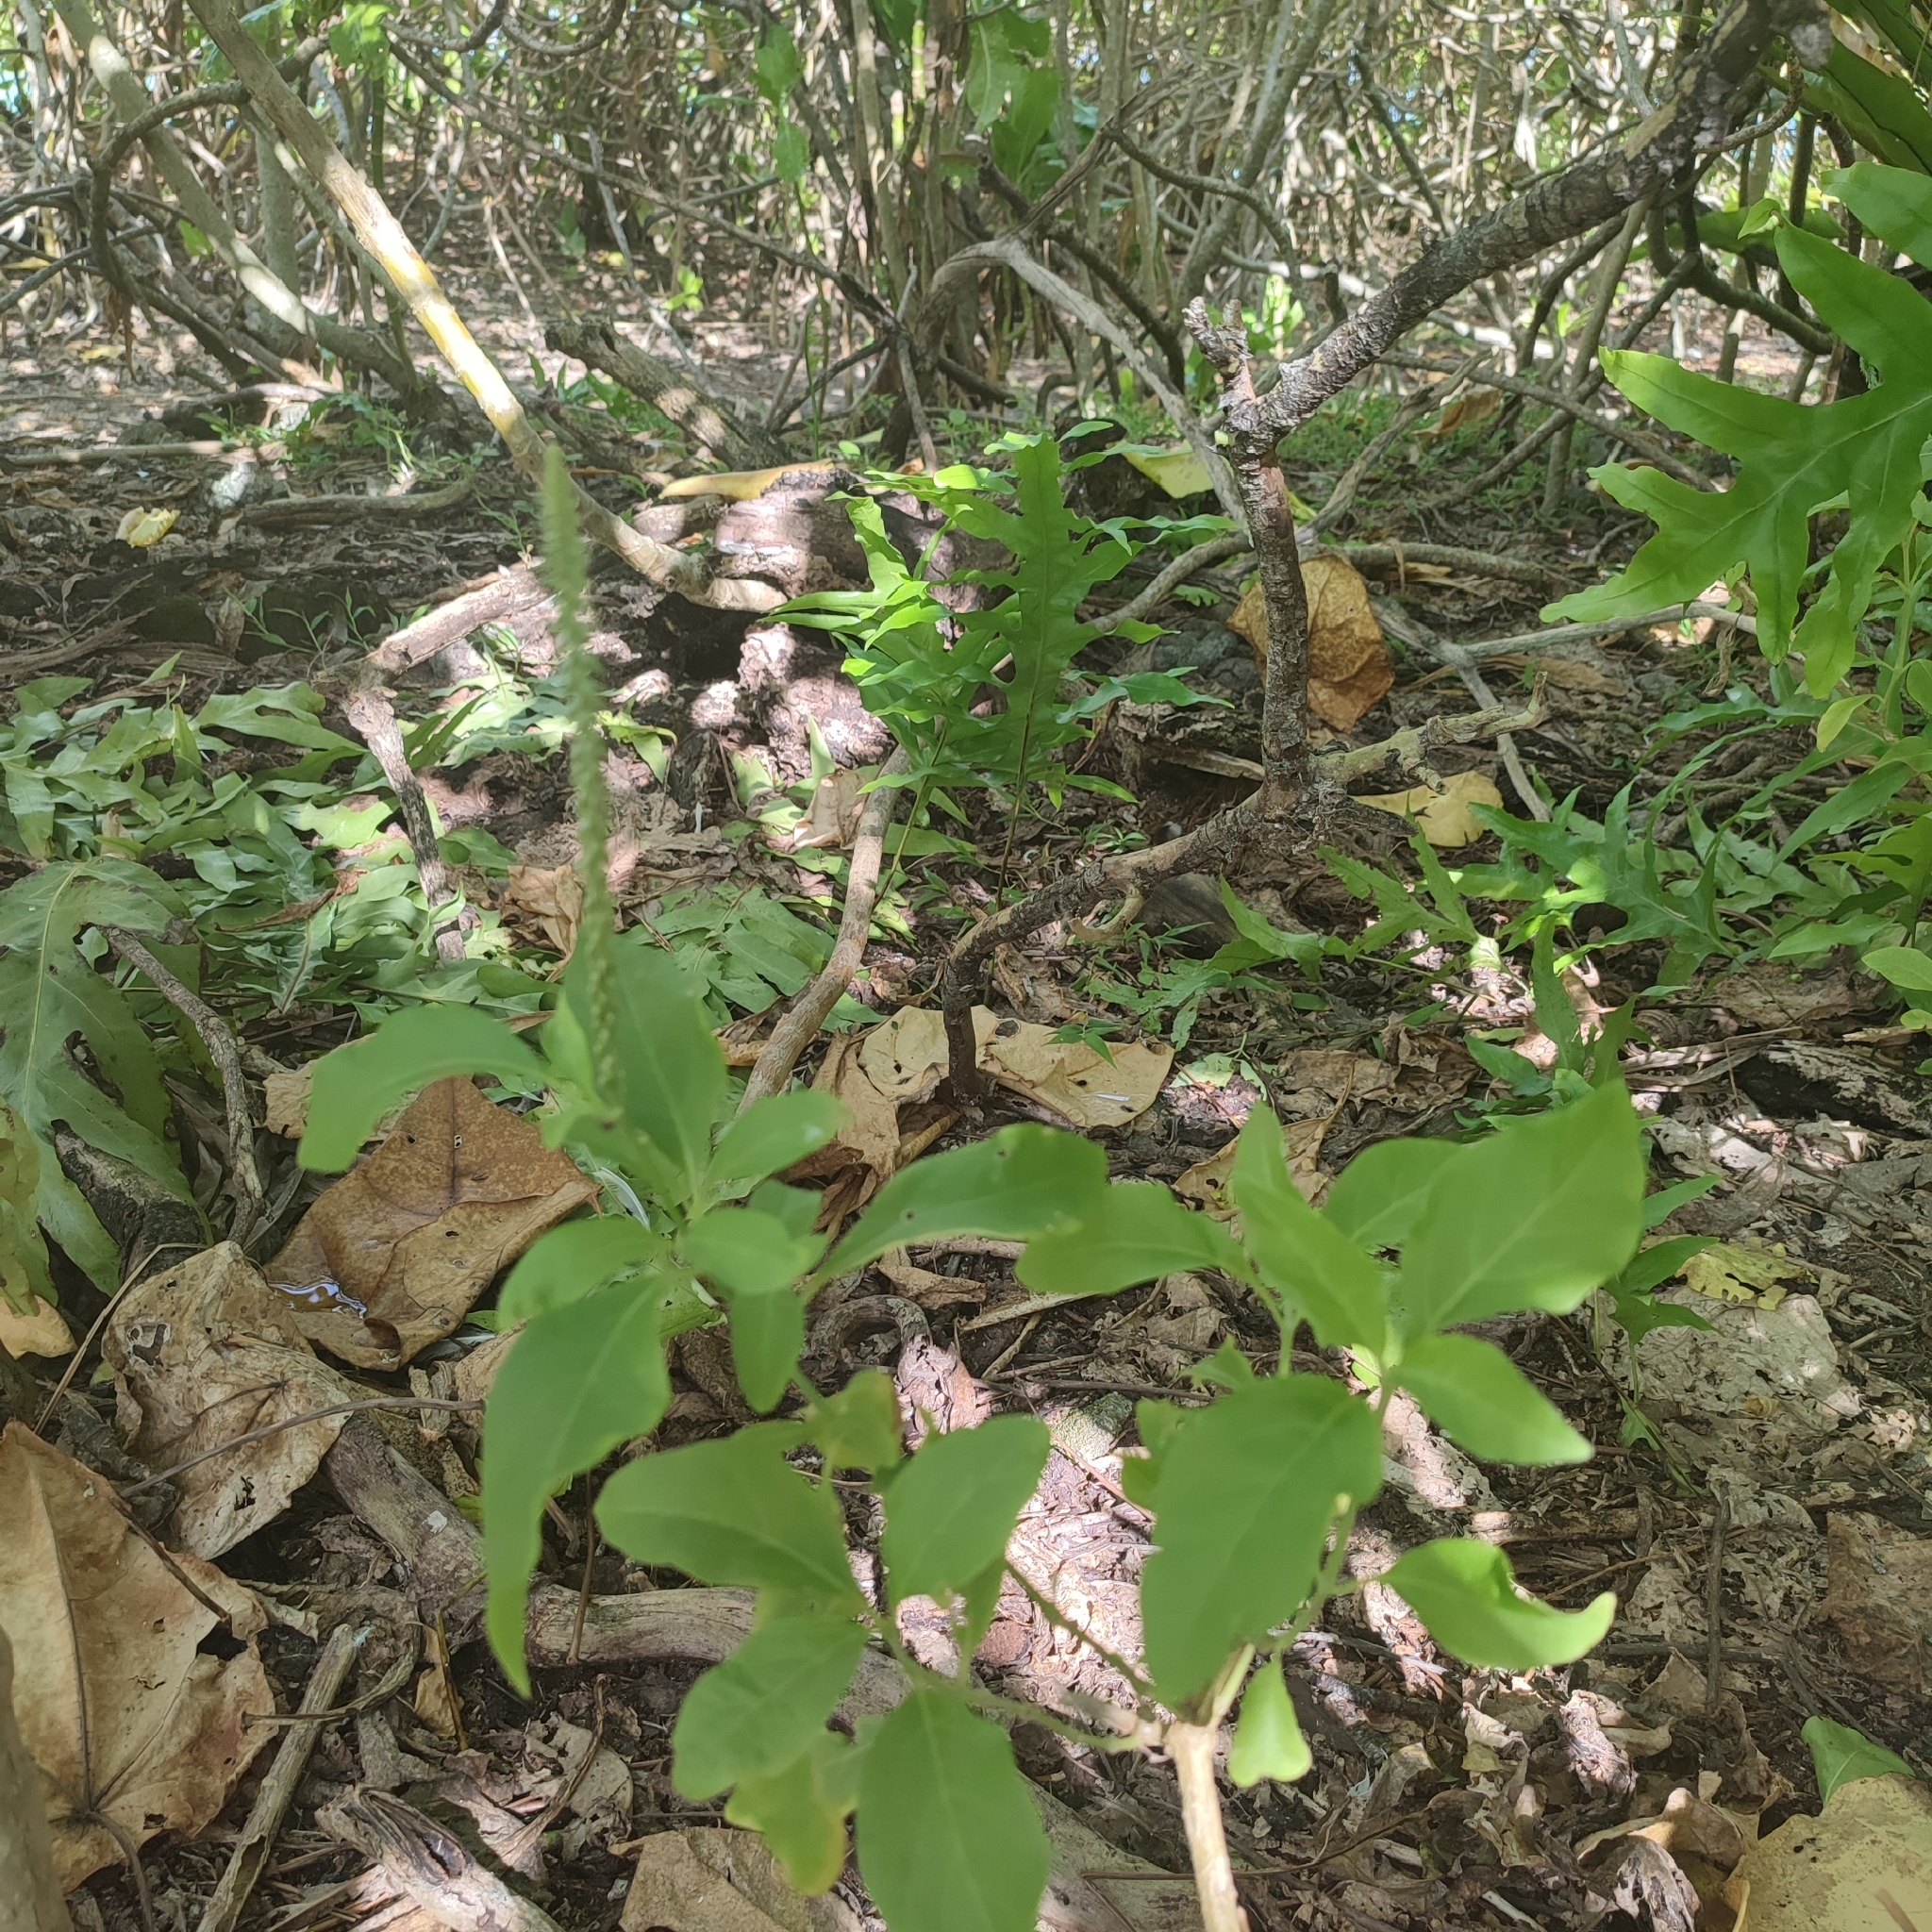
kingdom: Plantae
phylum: Tracheophyta
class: Magnoliopsida
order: Caryophyllales
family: Amaranthaceae
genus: Achyranthes
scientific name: Achyranthes aspera
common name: Devil's horsewhip
